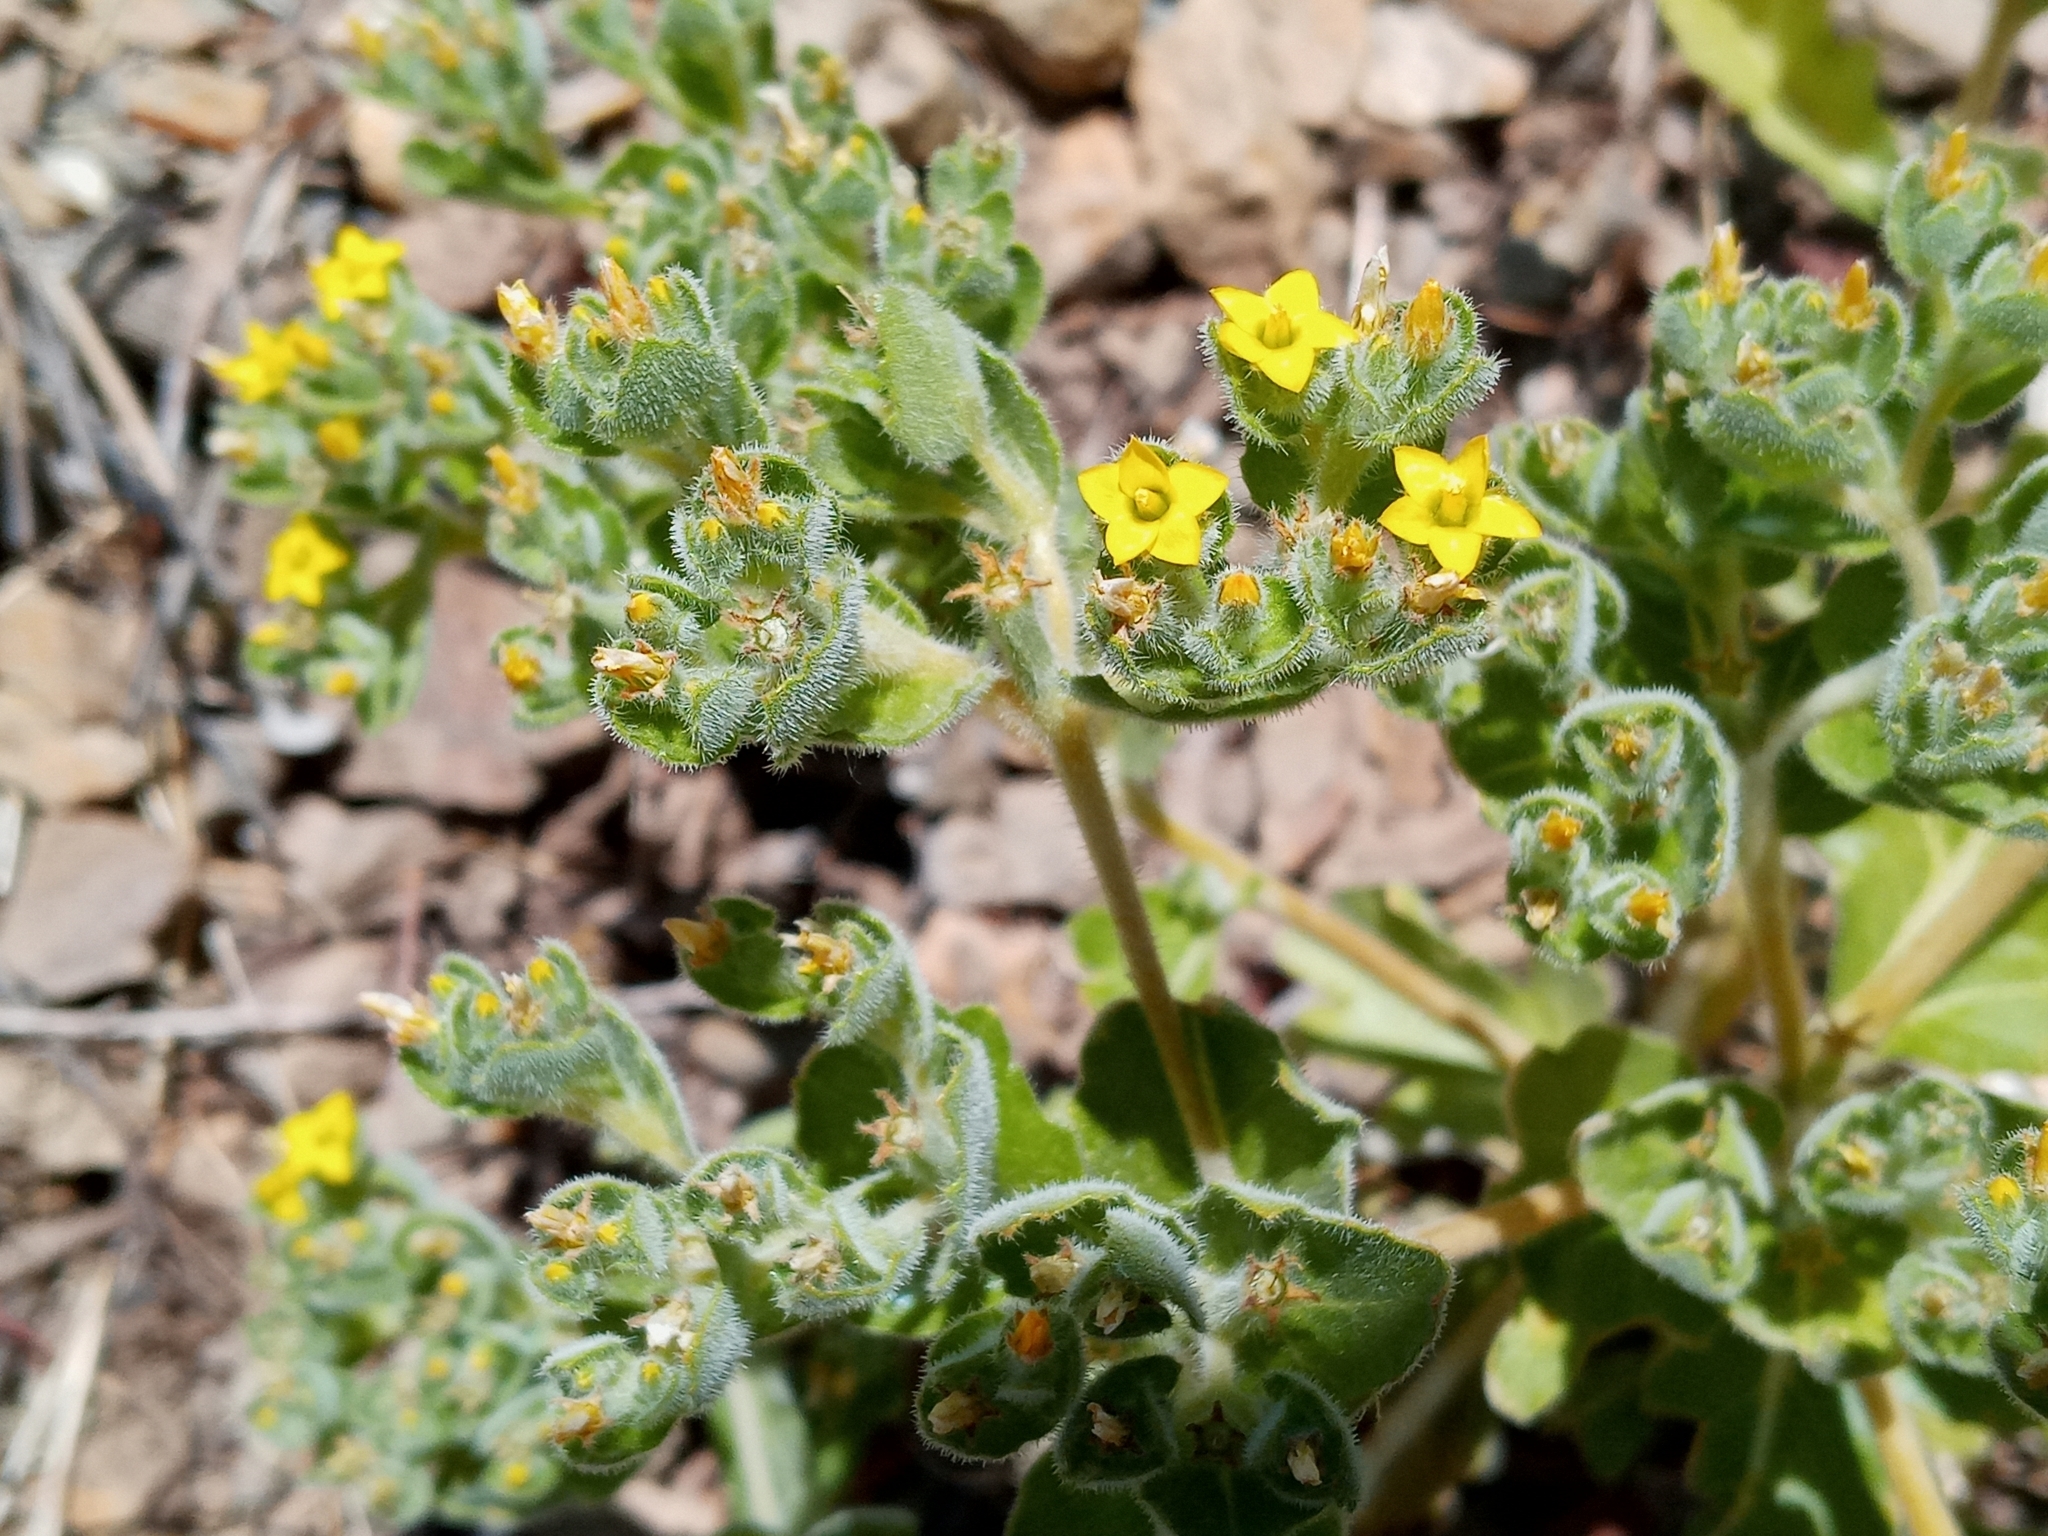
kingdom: Plantae
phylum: Tracheophyta
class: Magnoliopsida
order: Cornales
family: Loasaceae
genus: Mentzelia
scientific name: Mentzelia micrantha
